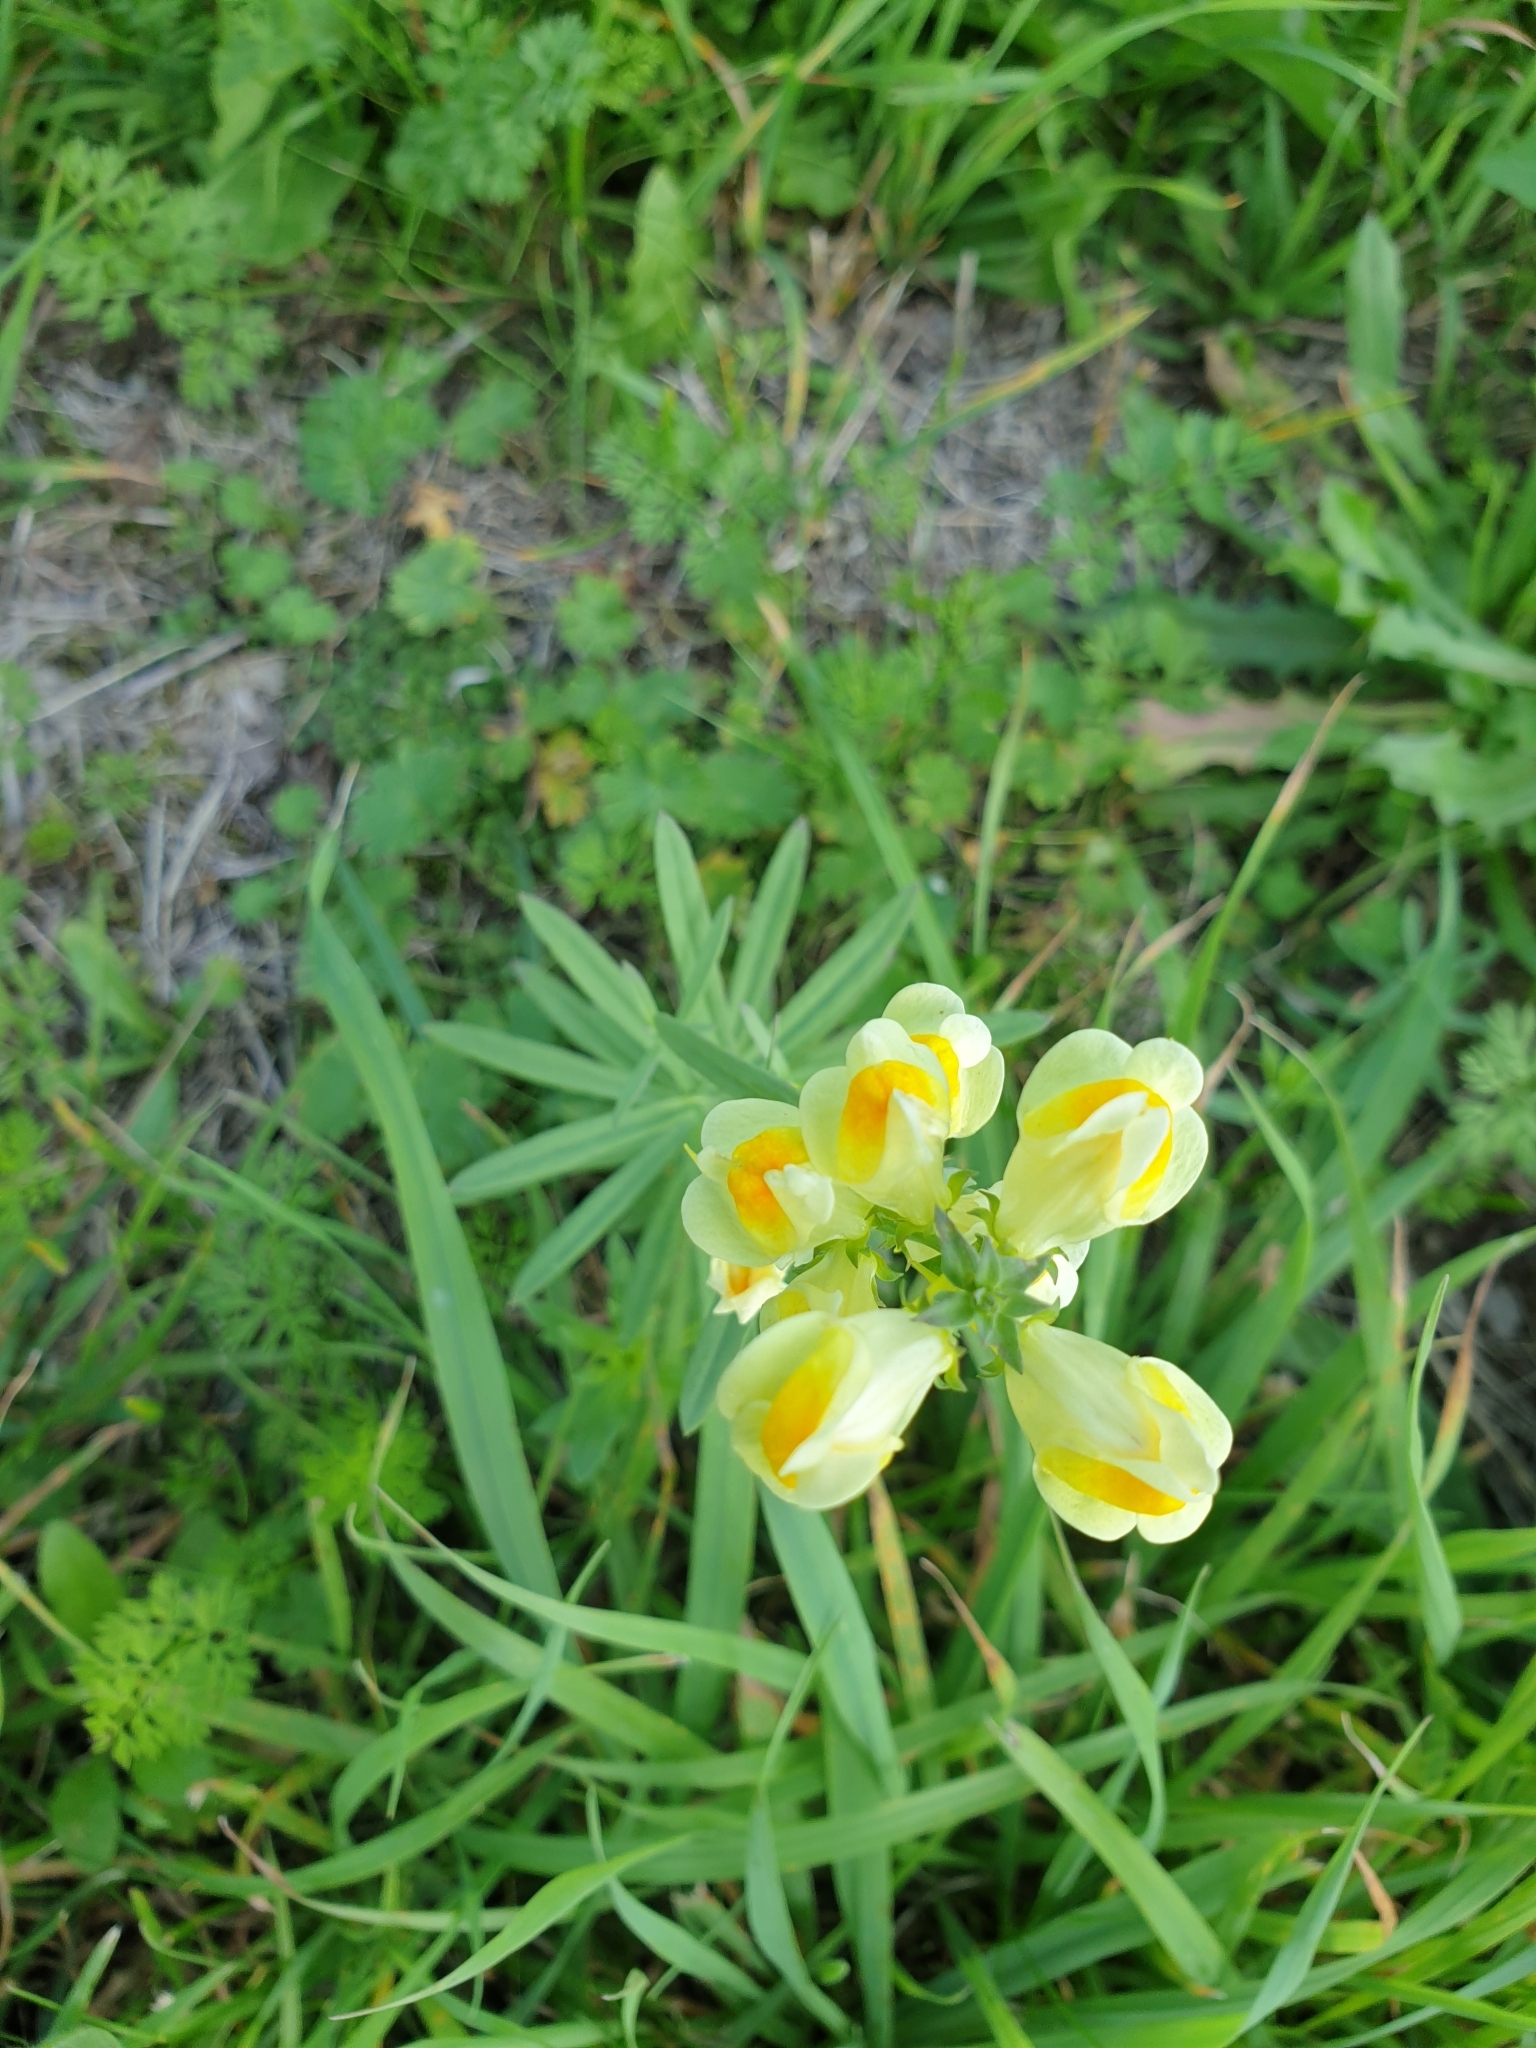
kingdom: Plantae
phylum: Tracheophyta
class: Magnoliopsida
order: Lamiales
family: Plantaginaceae
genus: Linaria
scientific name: Linaria vulgaris
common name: Butter and eggs
